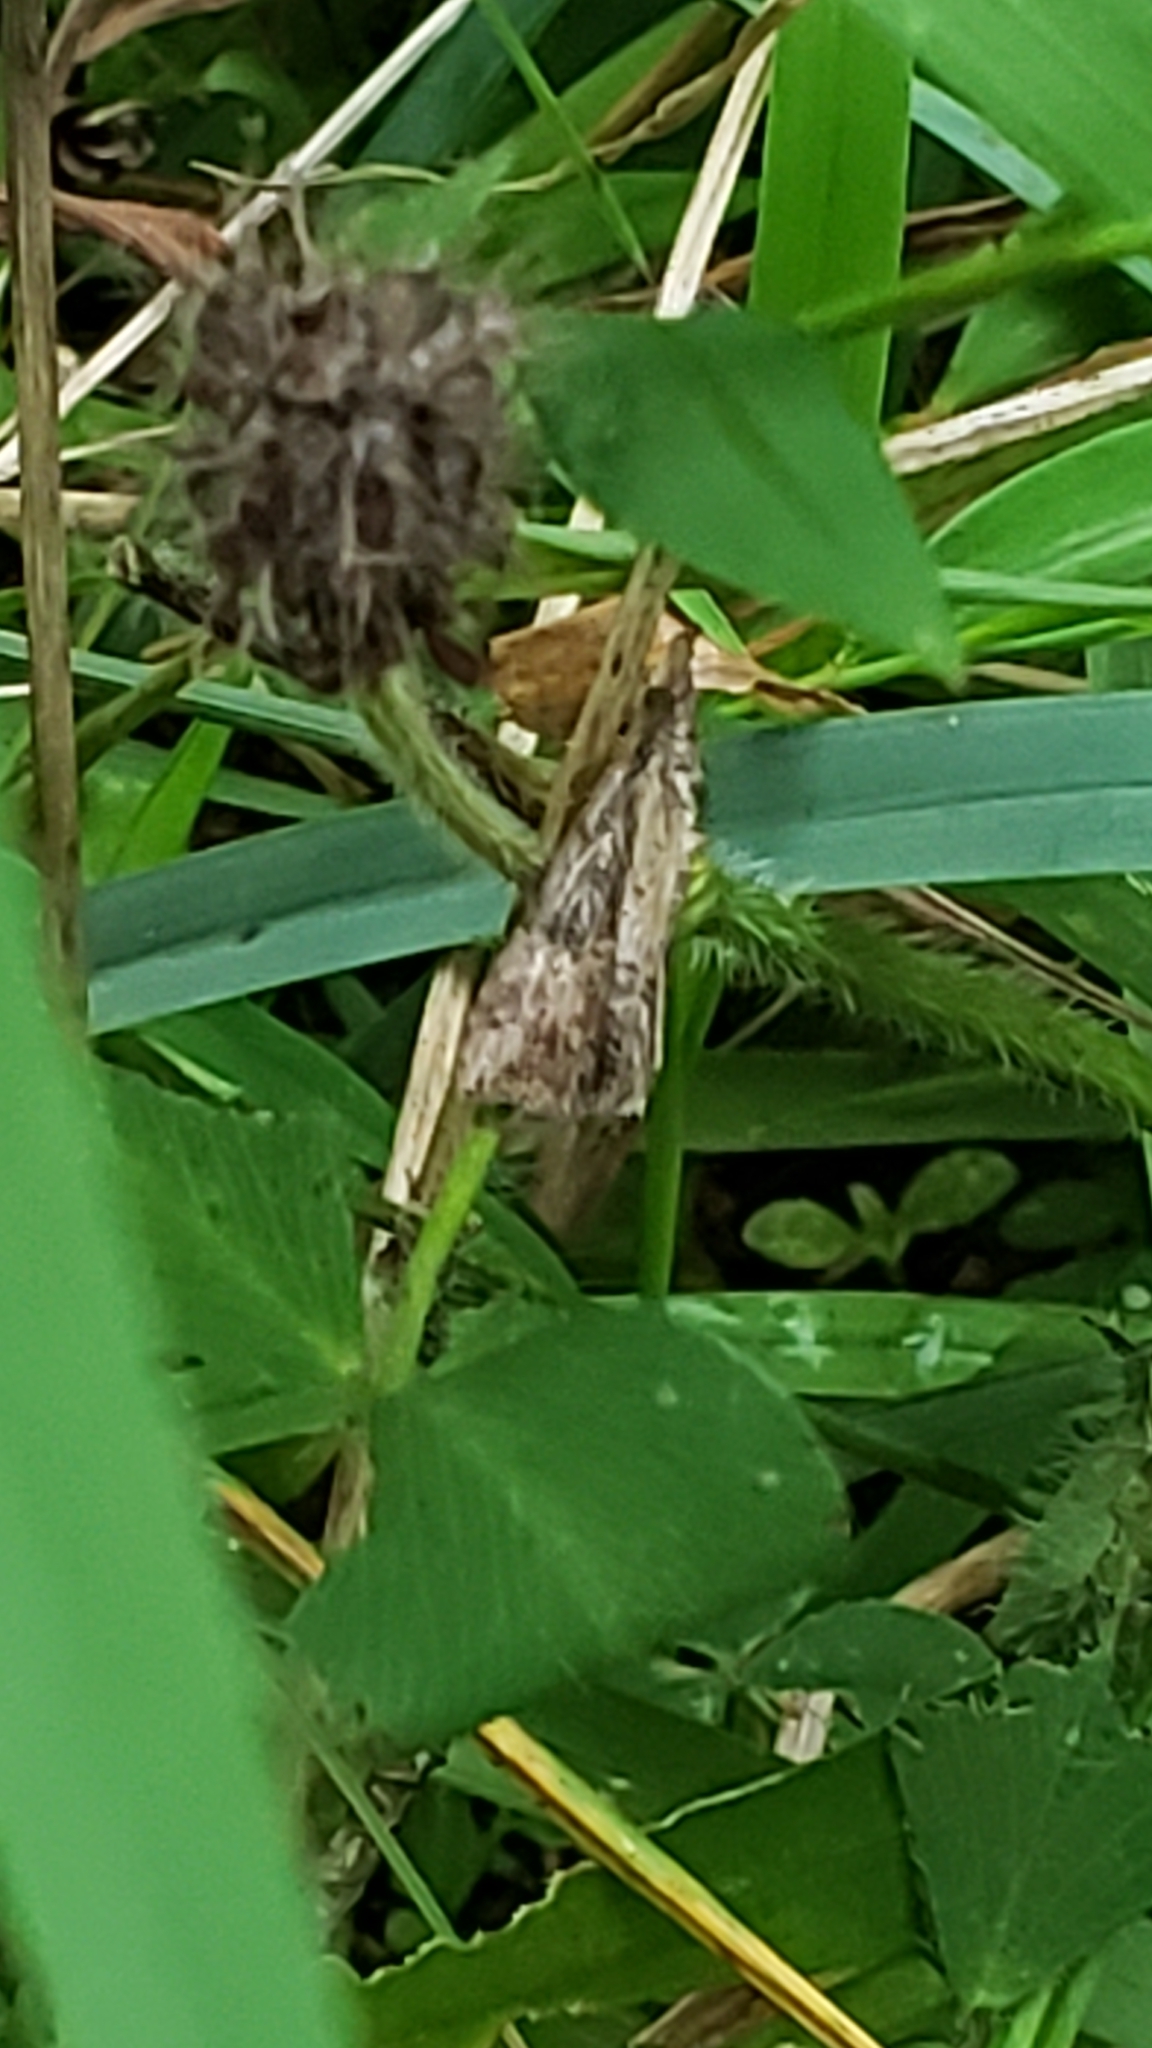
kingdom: Animalia
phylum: Arthropoda
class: Insecta
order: Lepidoptera
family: Erebidae
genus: Hypena
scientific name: Hypena scabra
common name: Green cloverworm
